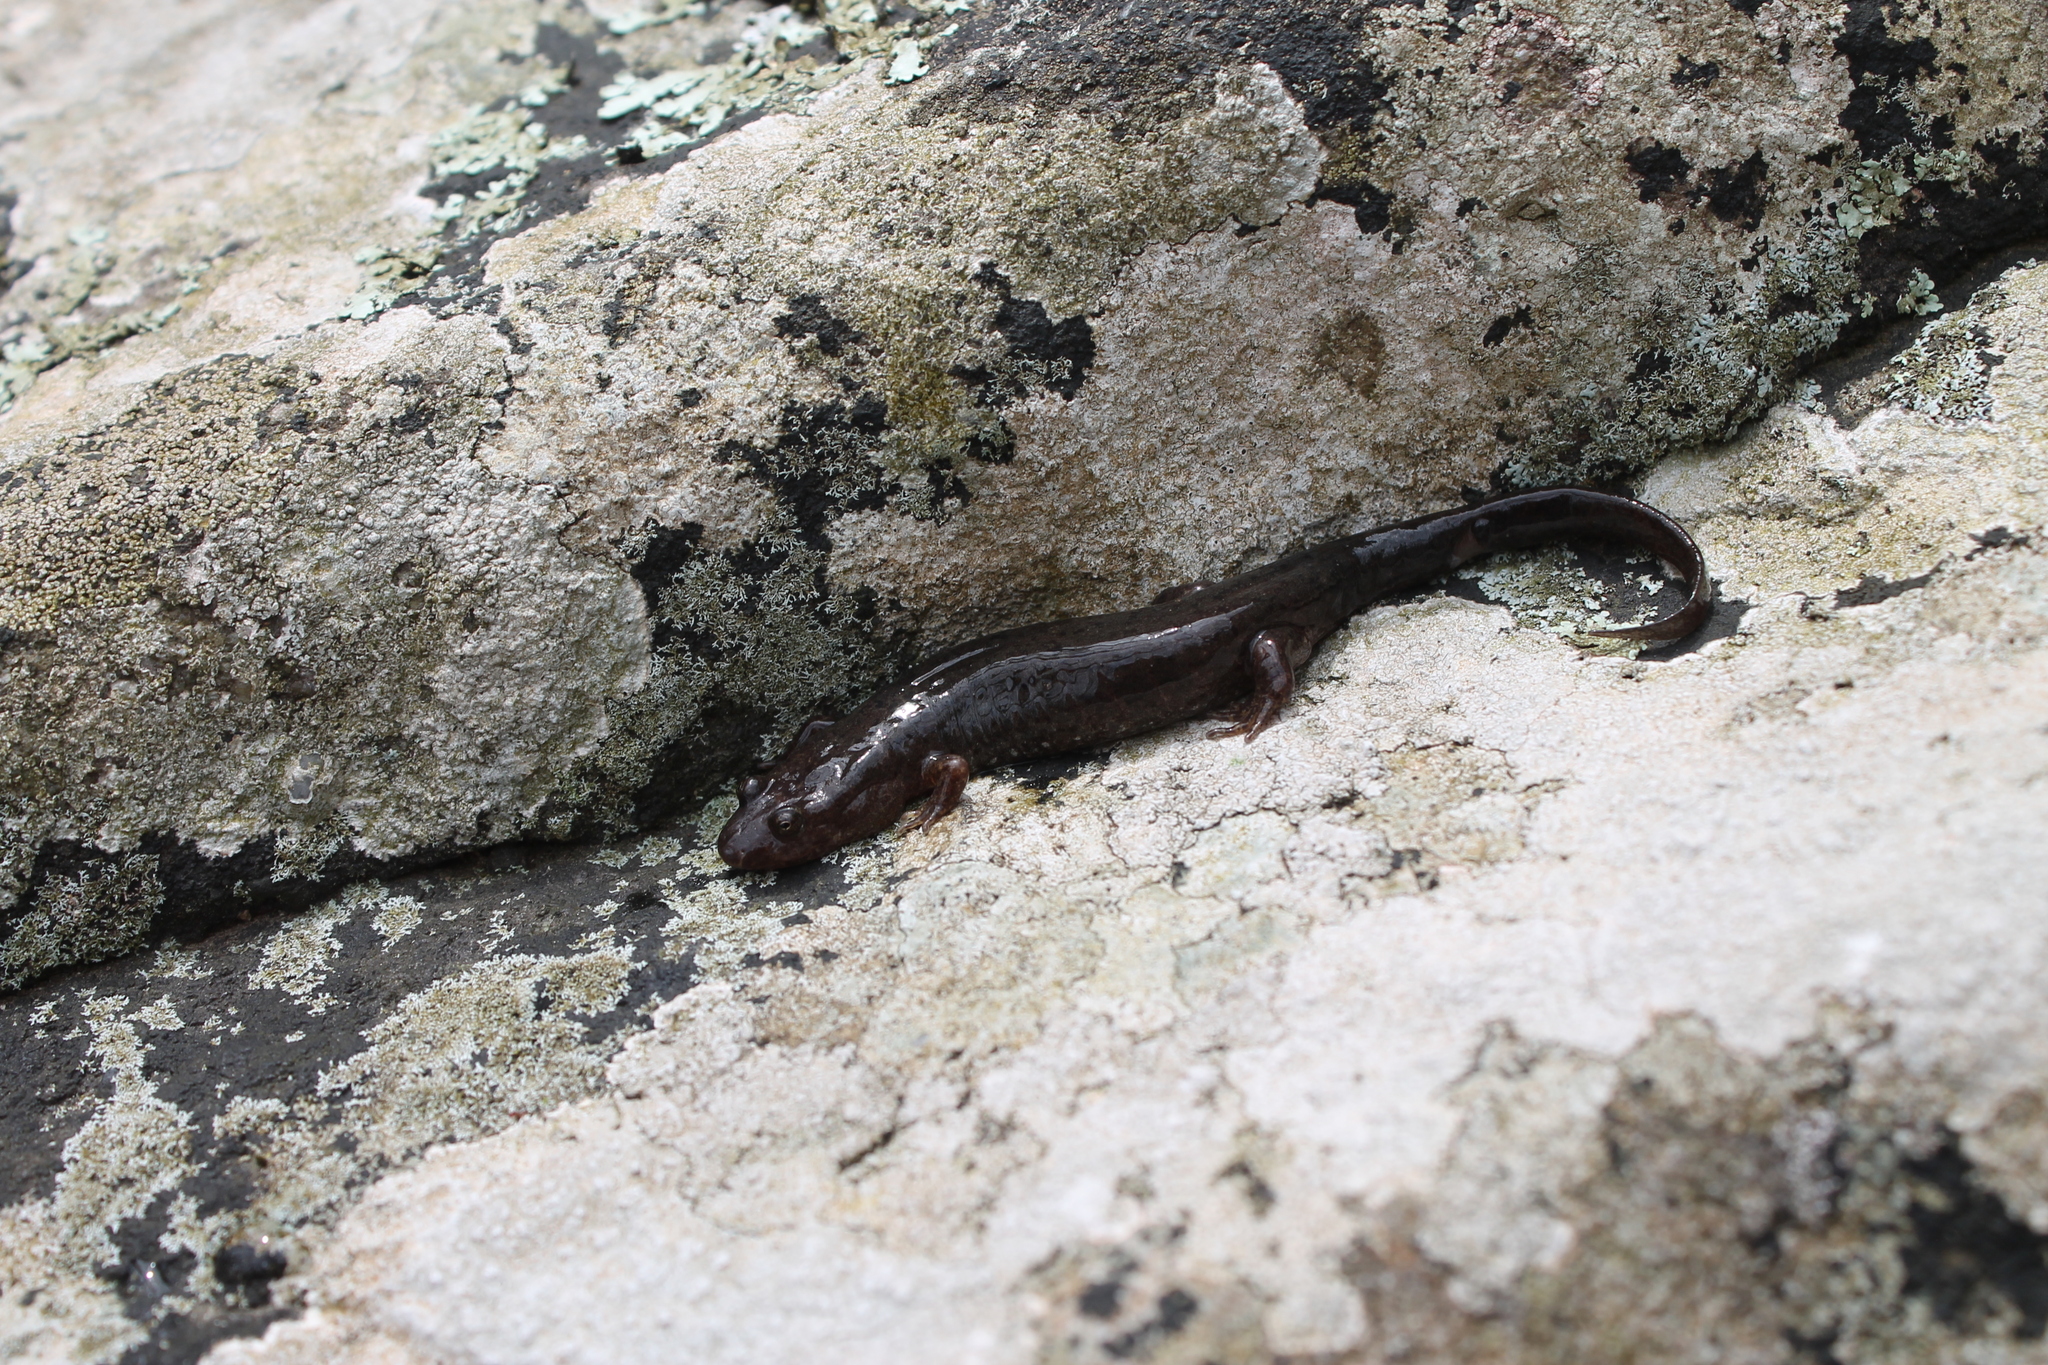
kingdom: Animalia
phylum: Chordata
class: Amphibia
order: Caudata
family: Plethodontidae
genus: Desmognathus
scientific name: Desmognathus
